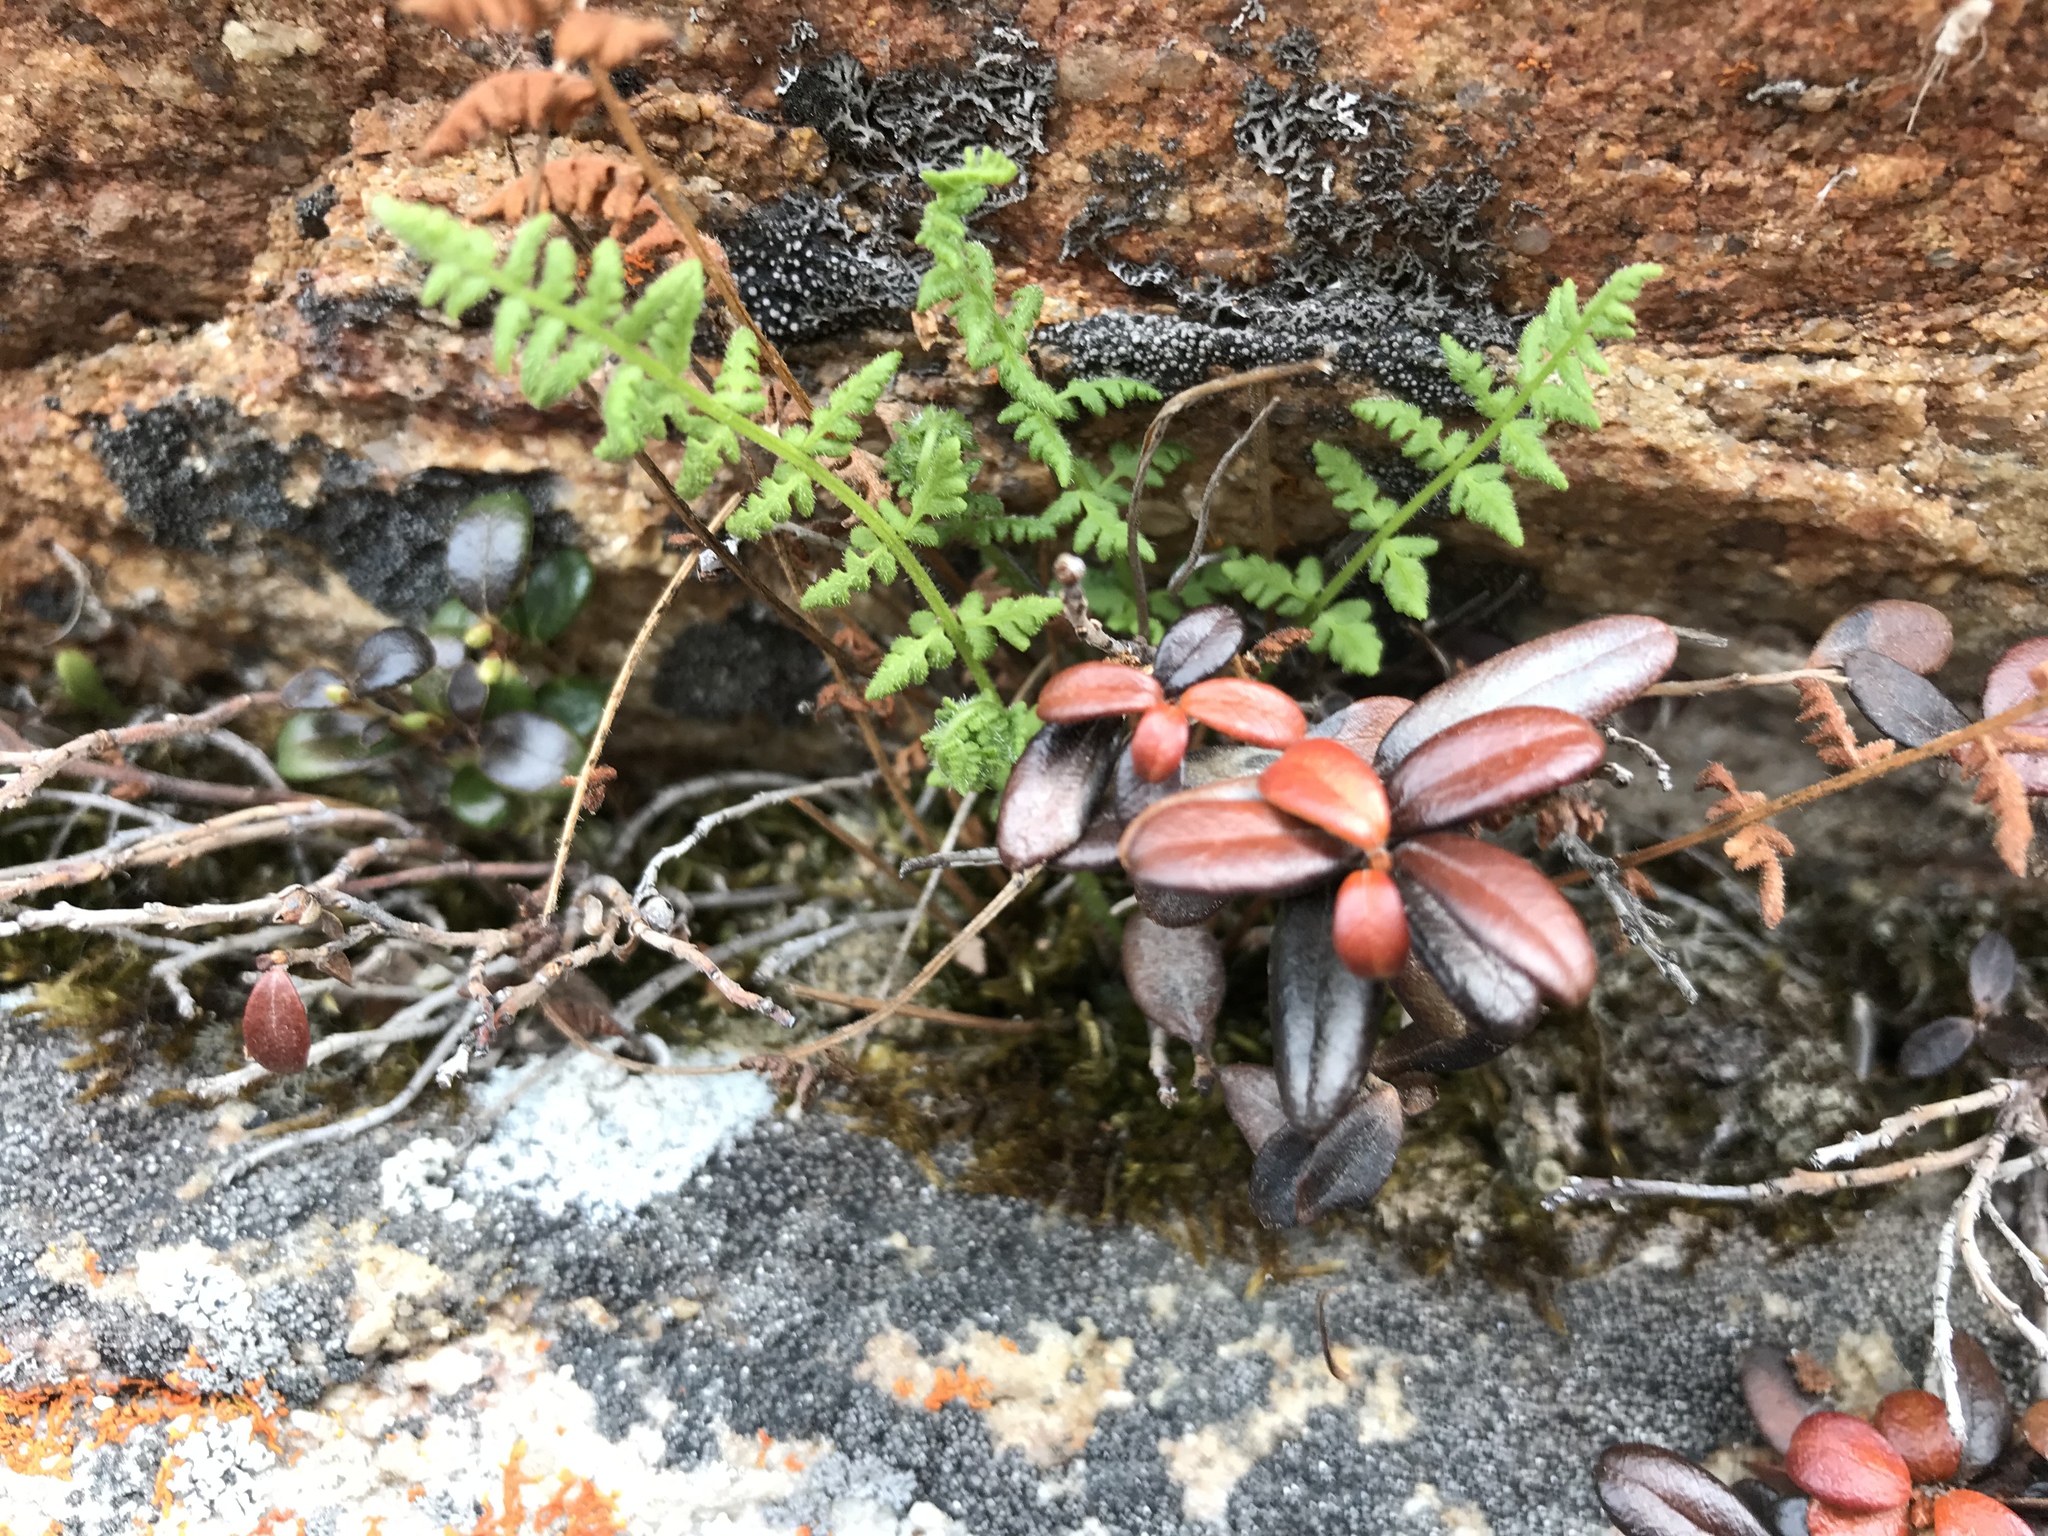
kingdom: Plantae
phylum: Tracheophyta
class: Polypodiopsida
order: Polypodiales
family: Woodsiaceae
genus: Physematium
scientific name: Physematium scopulinum
